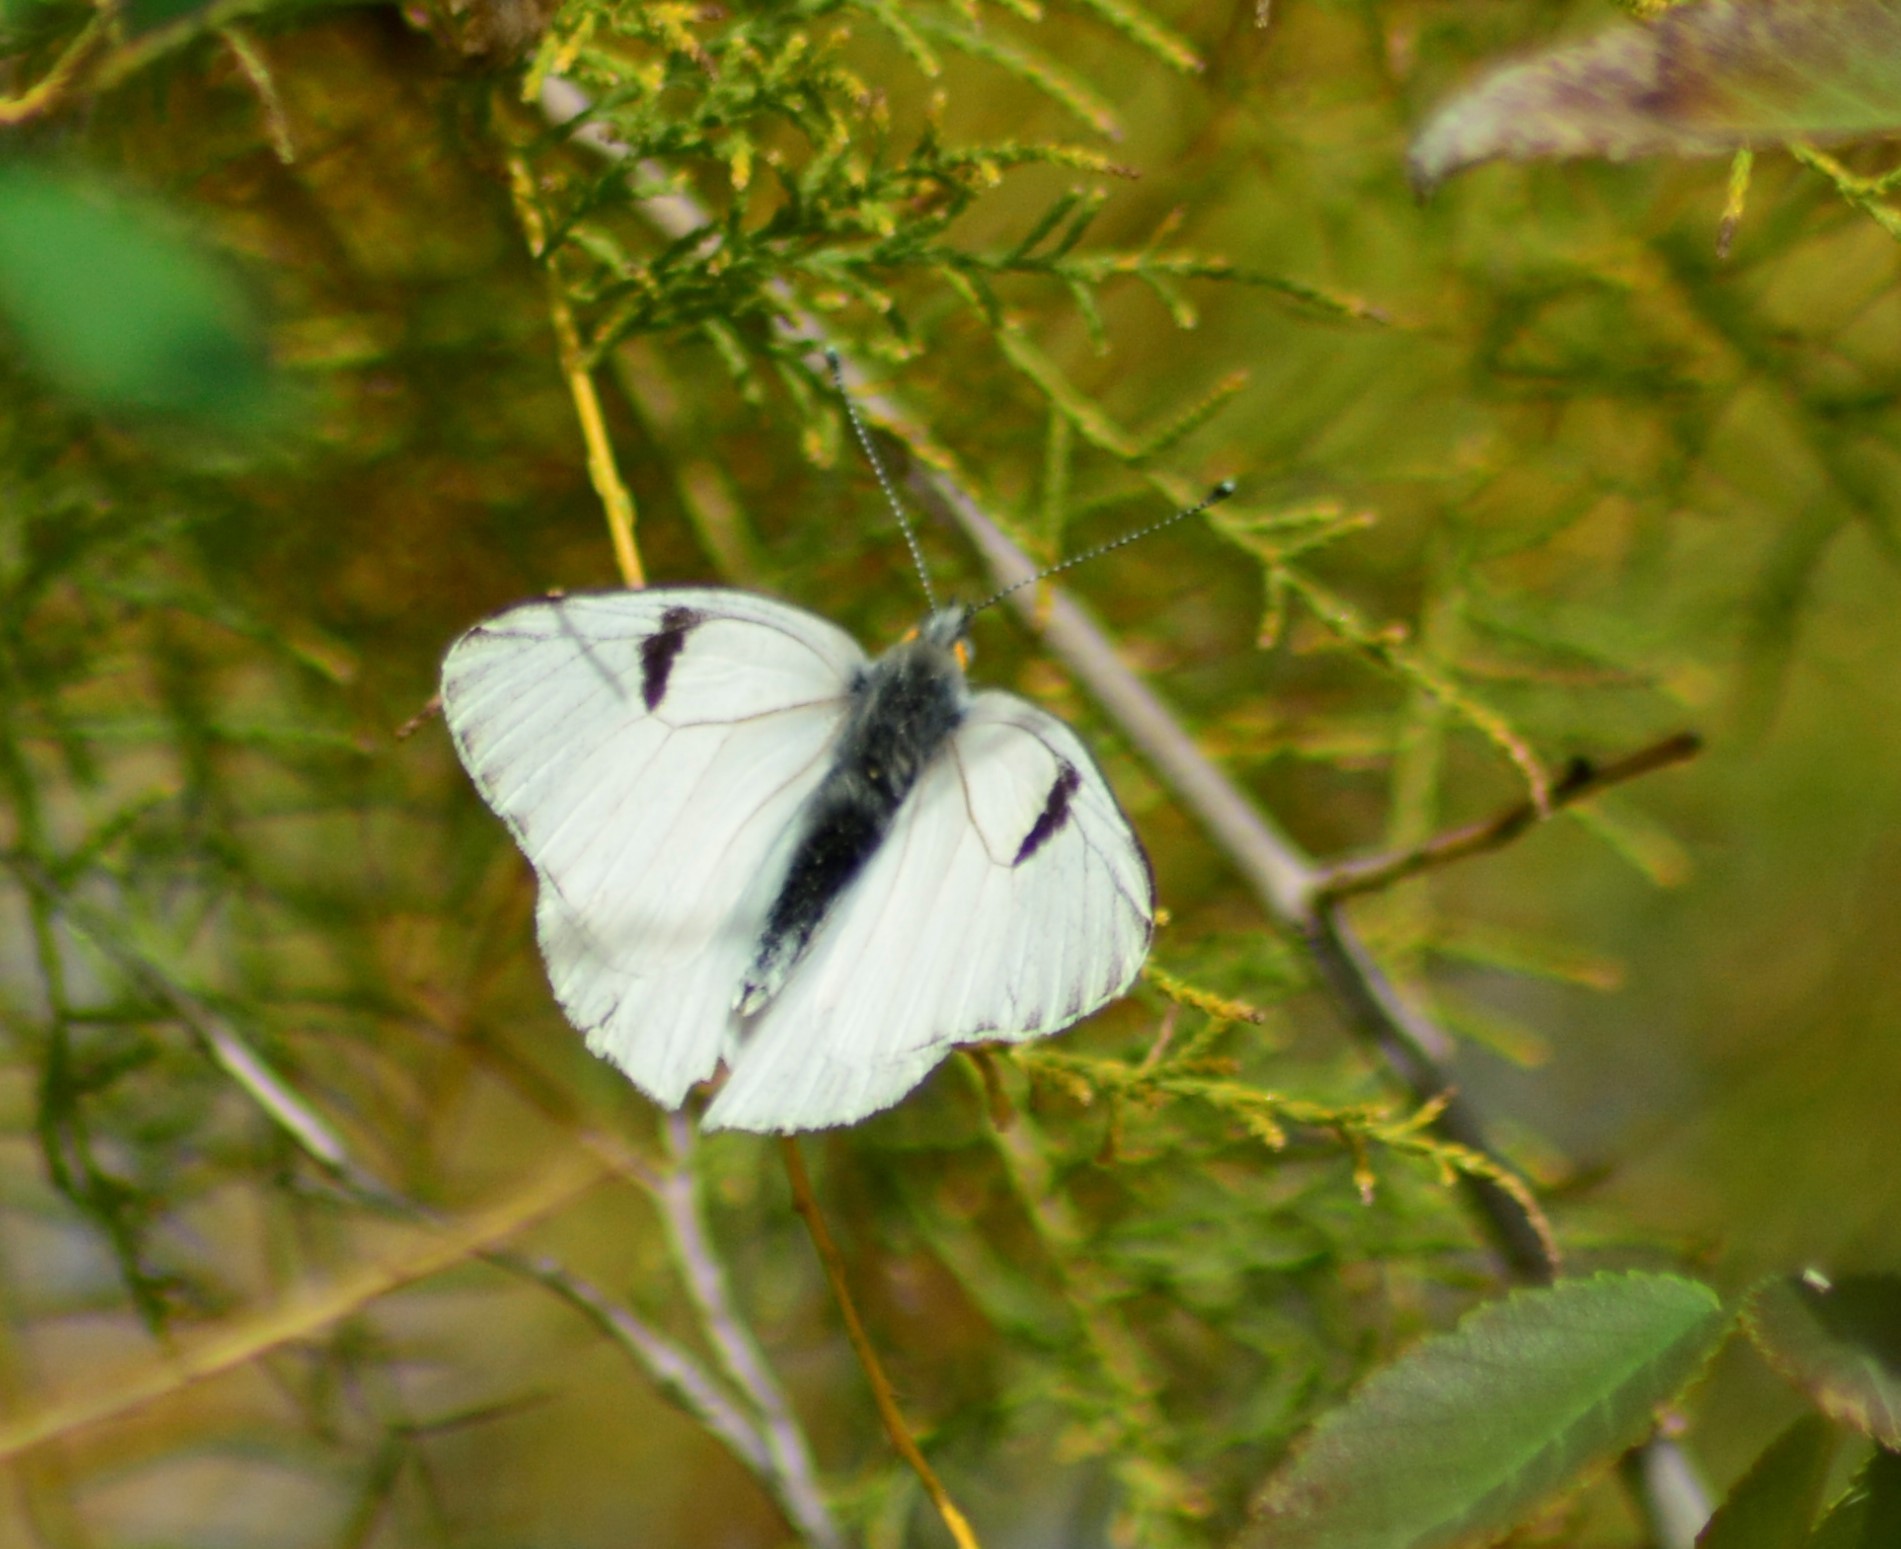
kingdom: Animalia
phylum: Arthropoda
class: Insecta
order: Lepidoptera
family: Pieridae
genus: Tatochila
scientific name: Tatochila mercedis
